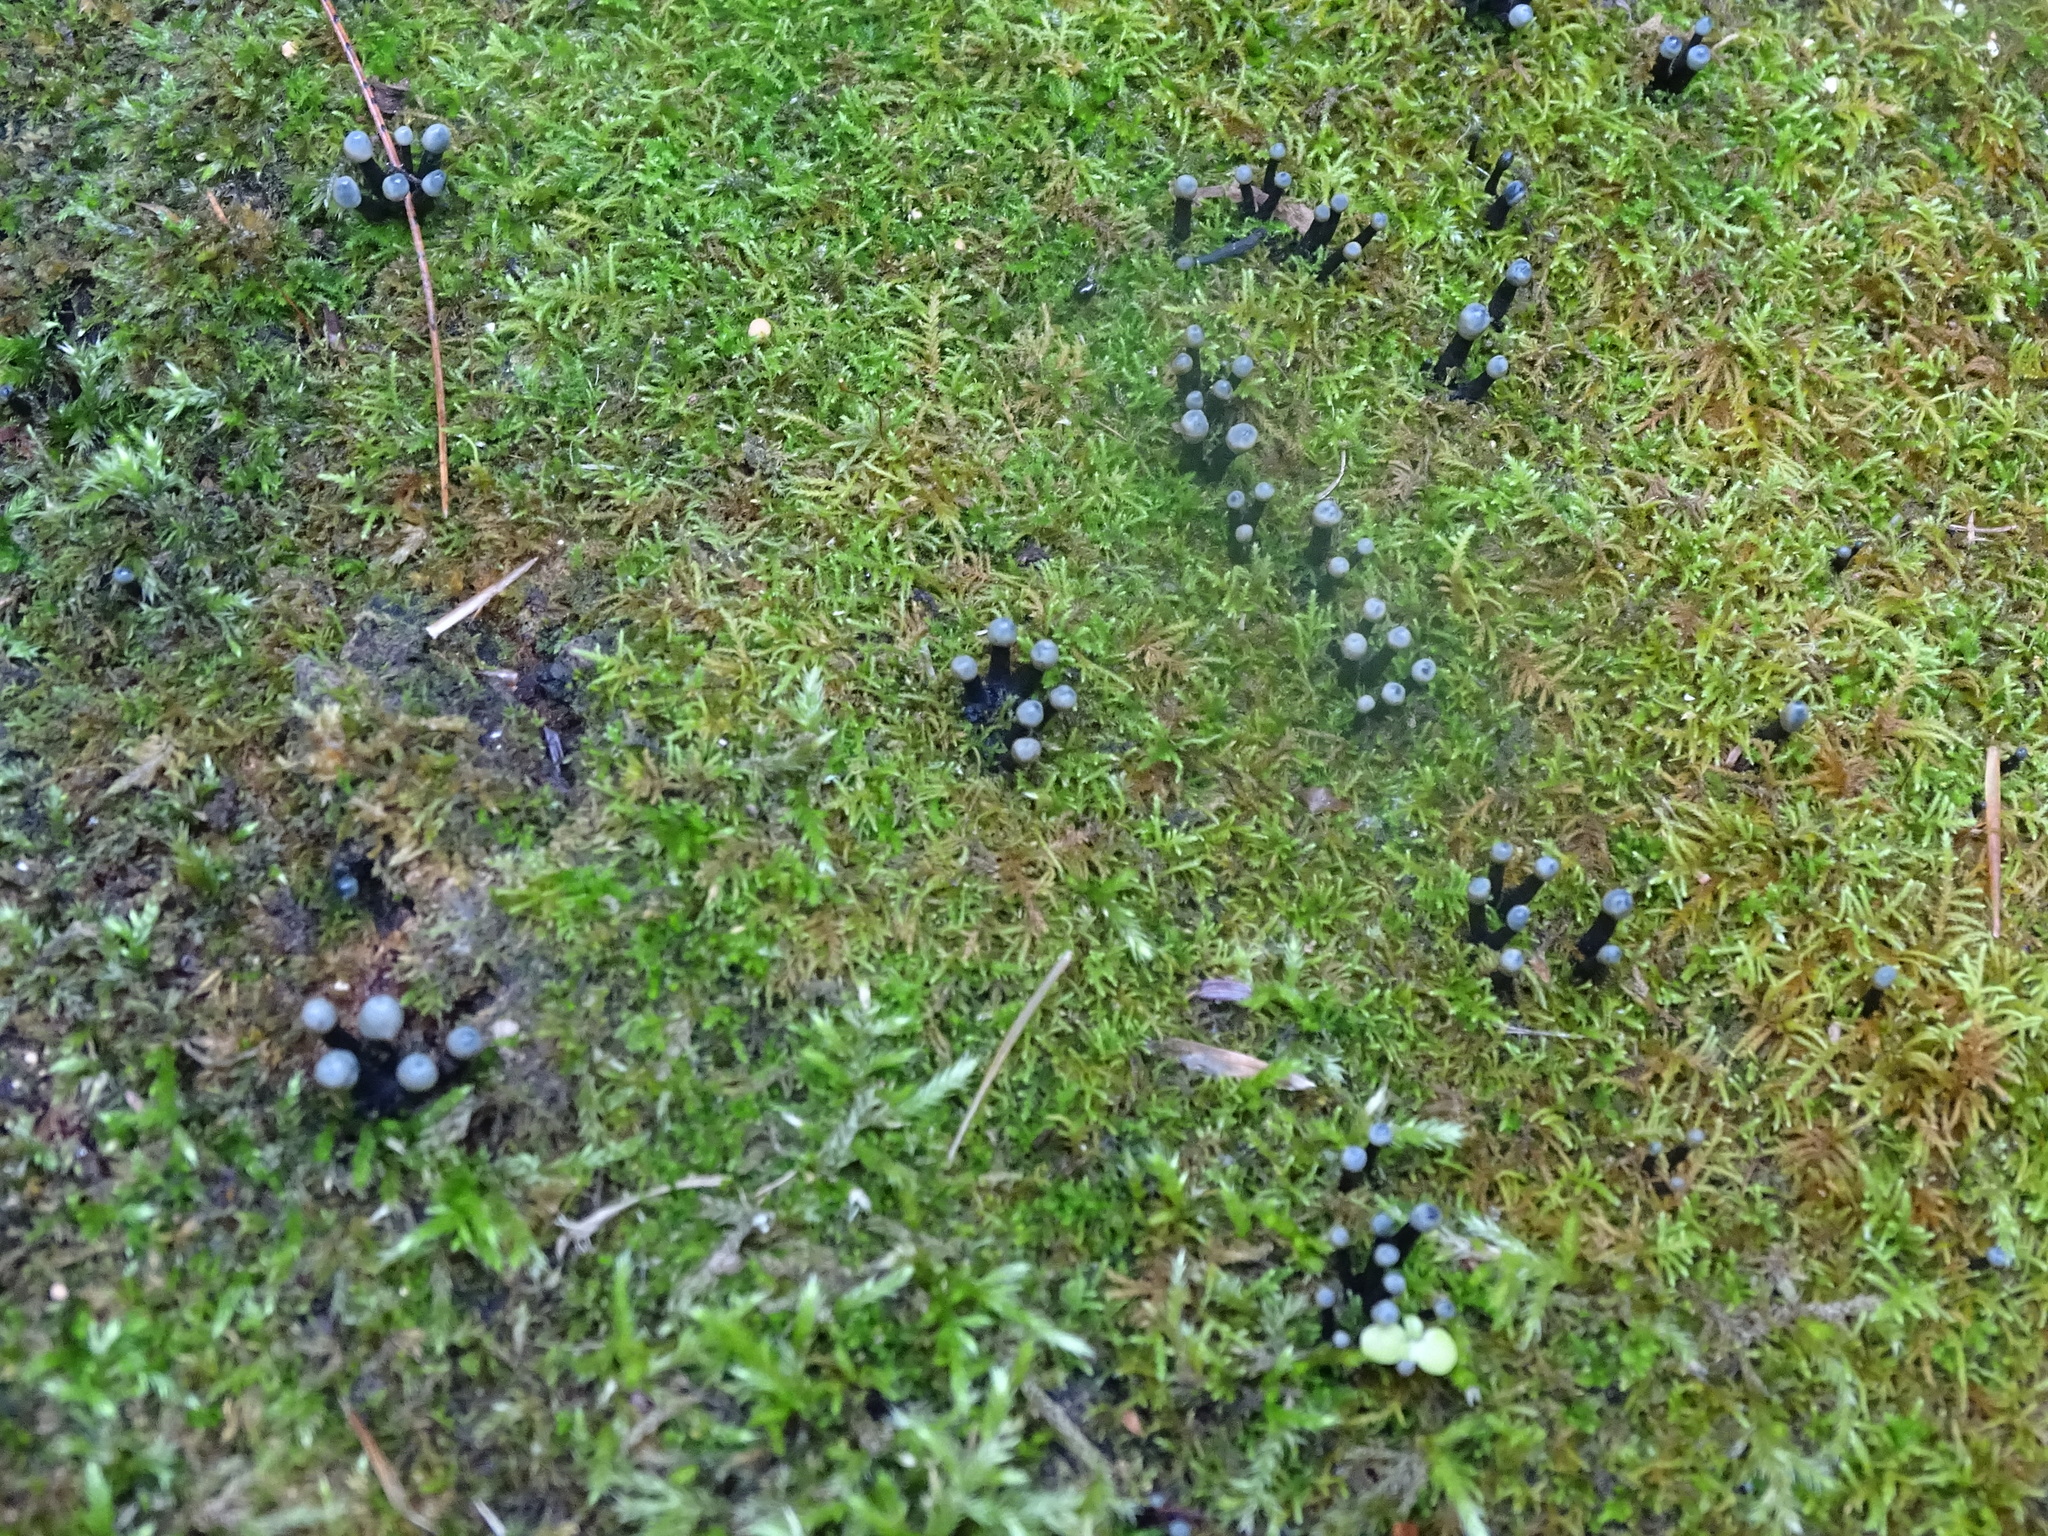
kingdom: Fungi
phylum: Ascomycota
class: Leotiomycetes
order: Helotiales
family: Bulgariaceae
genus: Holwaya
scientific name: Holwaya mucida
